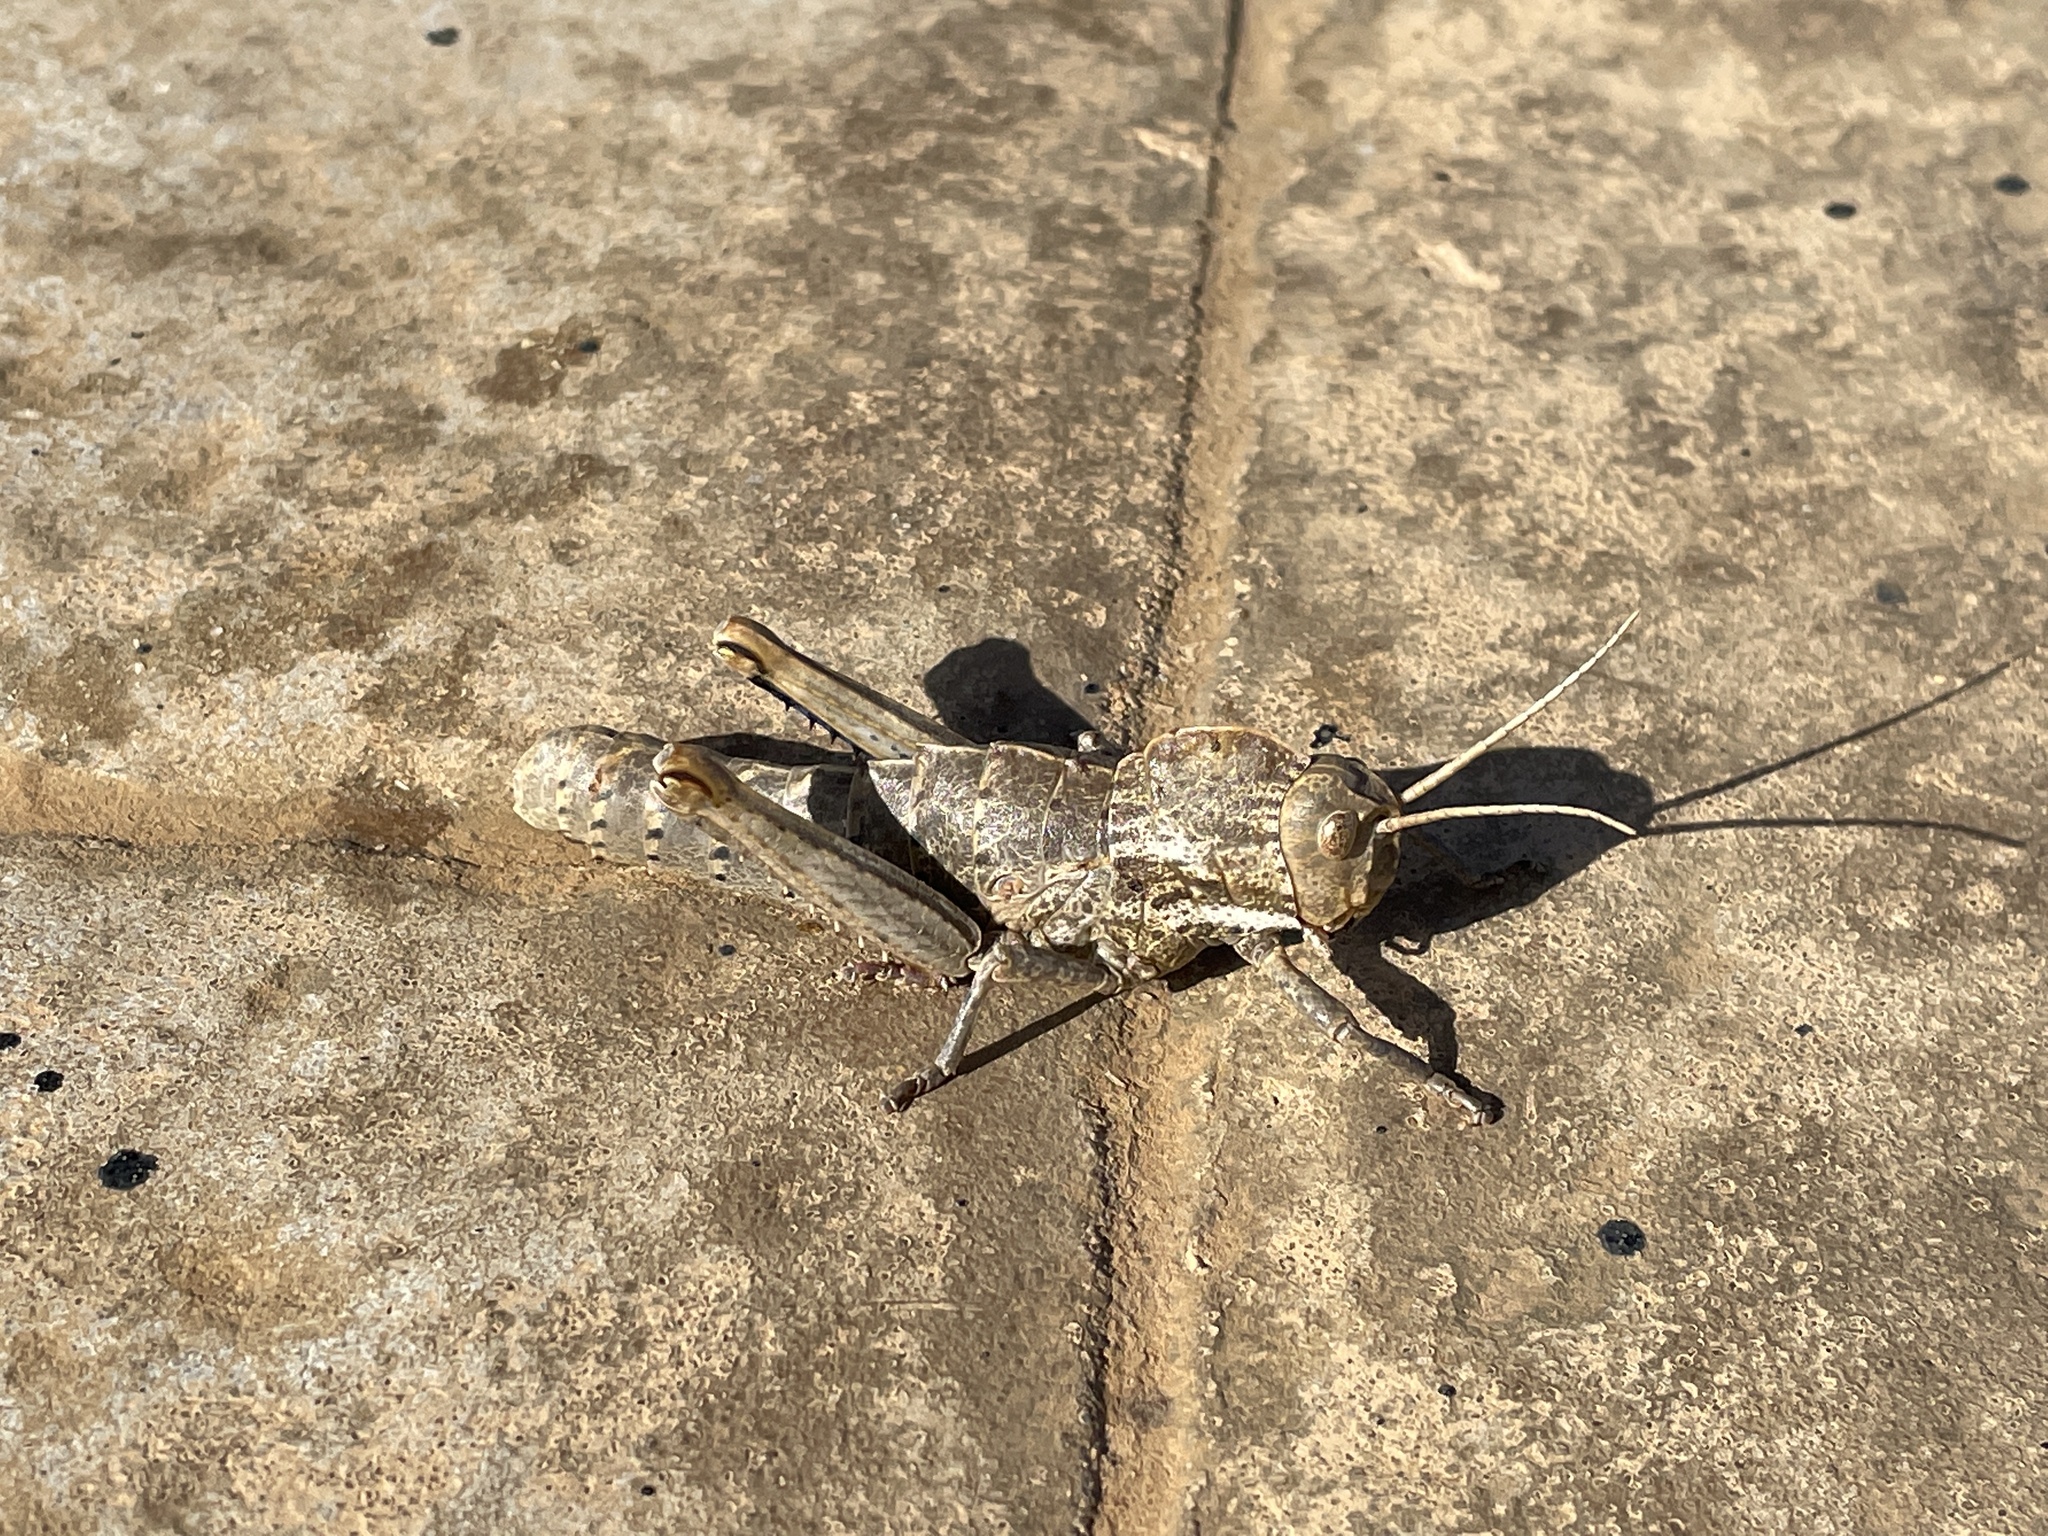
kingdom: Animalia
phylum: Arthropoda
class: Insecta
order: Orthoptera
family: Pamphagidae
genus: Acinipe
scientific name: Acinipe tibialis
